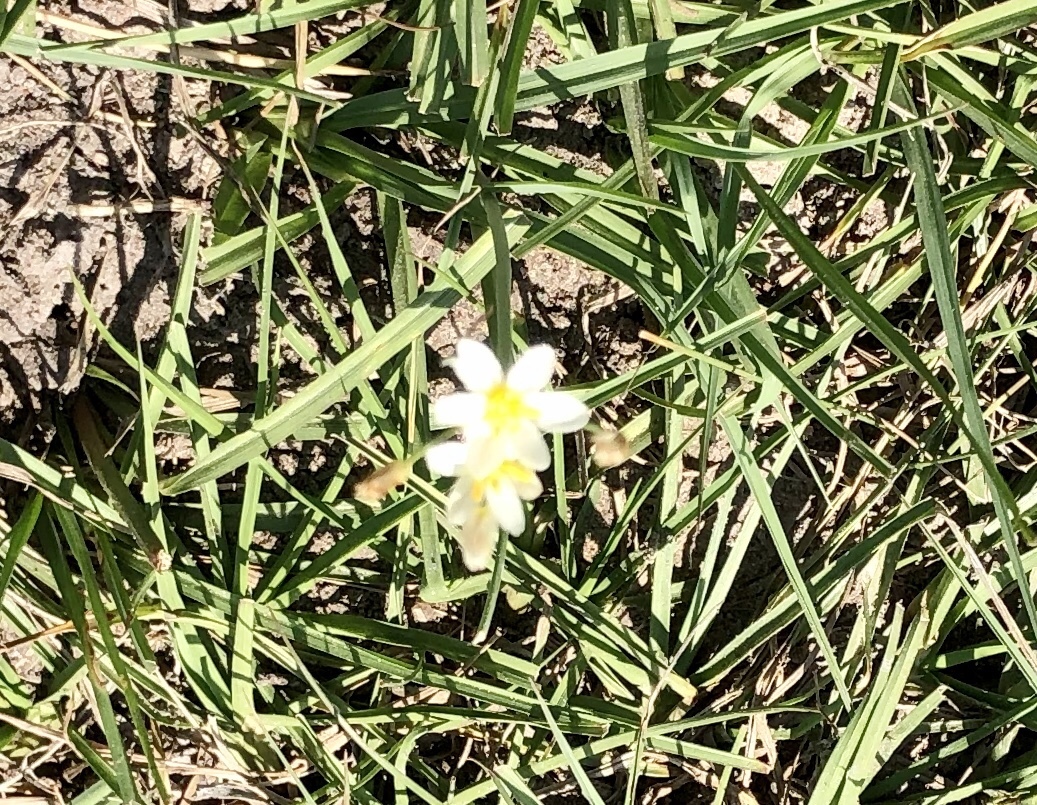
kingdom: Plantae
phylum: Tracheophyta
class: Liliopsida
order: Asparagales
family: Amaryllidaceae
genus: Nothoscordum
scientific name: Nothoscordum bivalve
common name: Crow-poison
